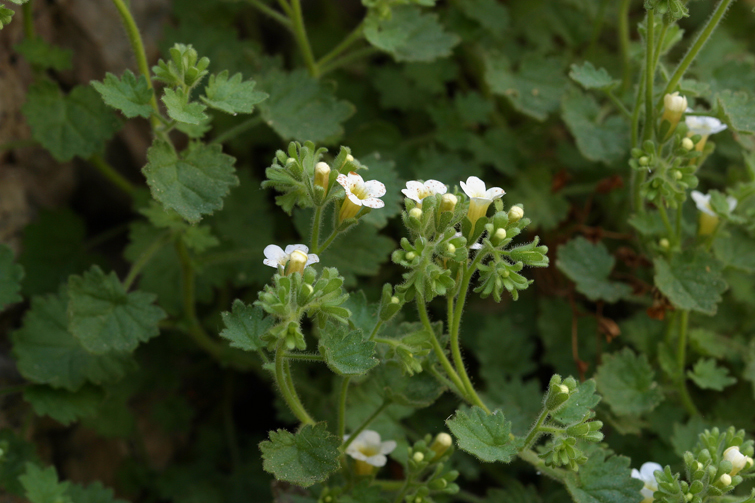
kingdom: Plantae
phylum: Tracheophyta
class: Magnoliopsida
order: Boraginales
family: Hydrophyllaceae
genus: Phacelia
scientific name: Phacelia perityloides
